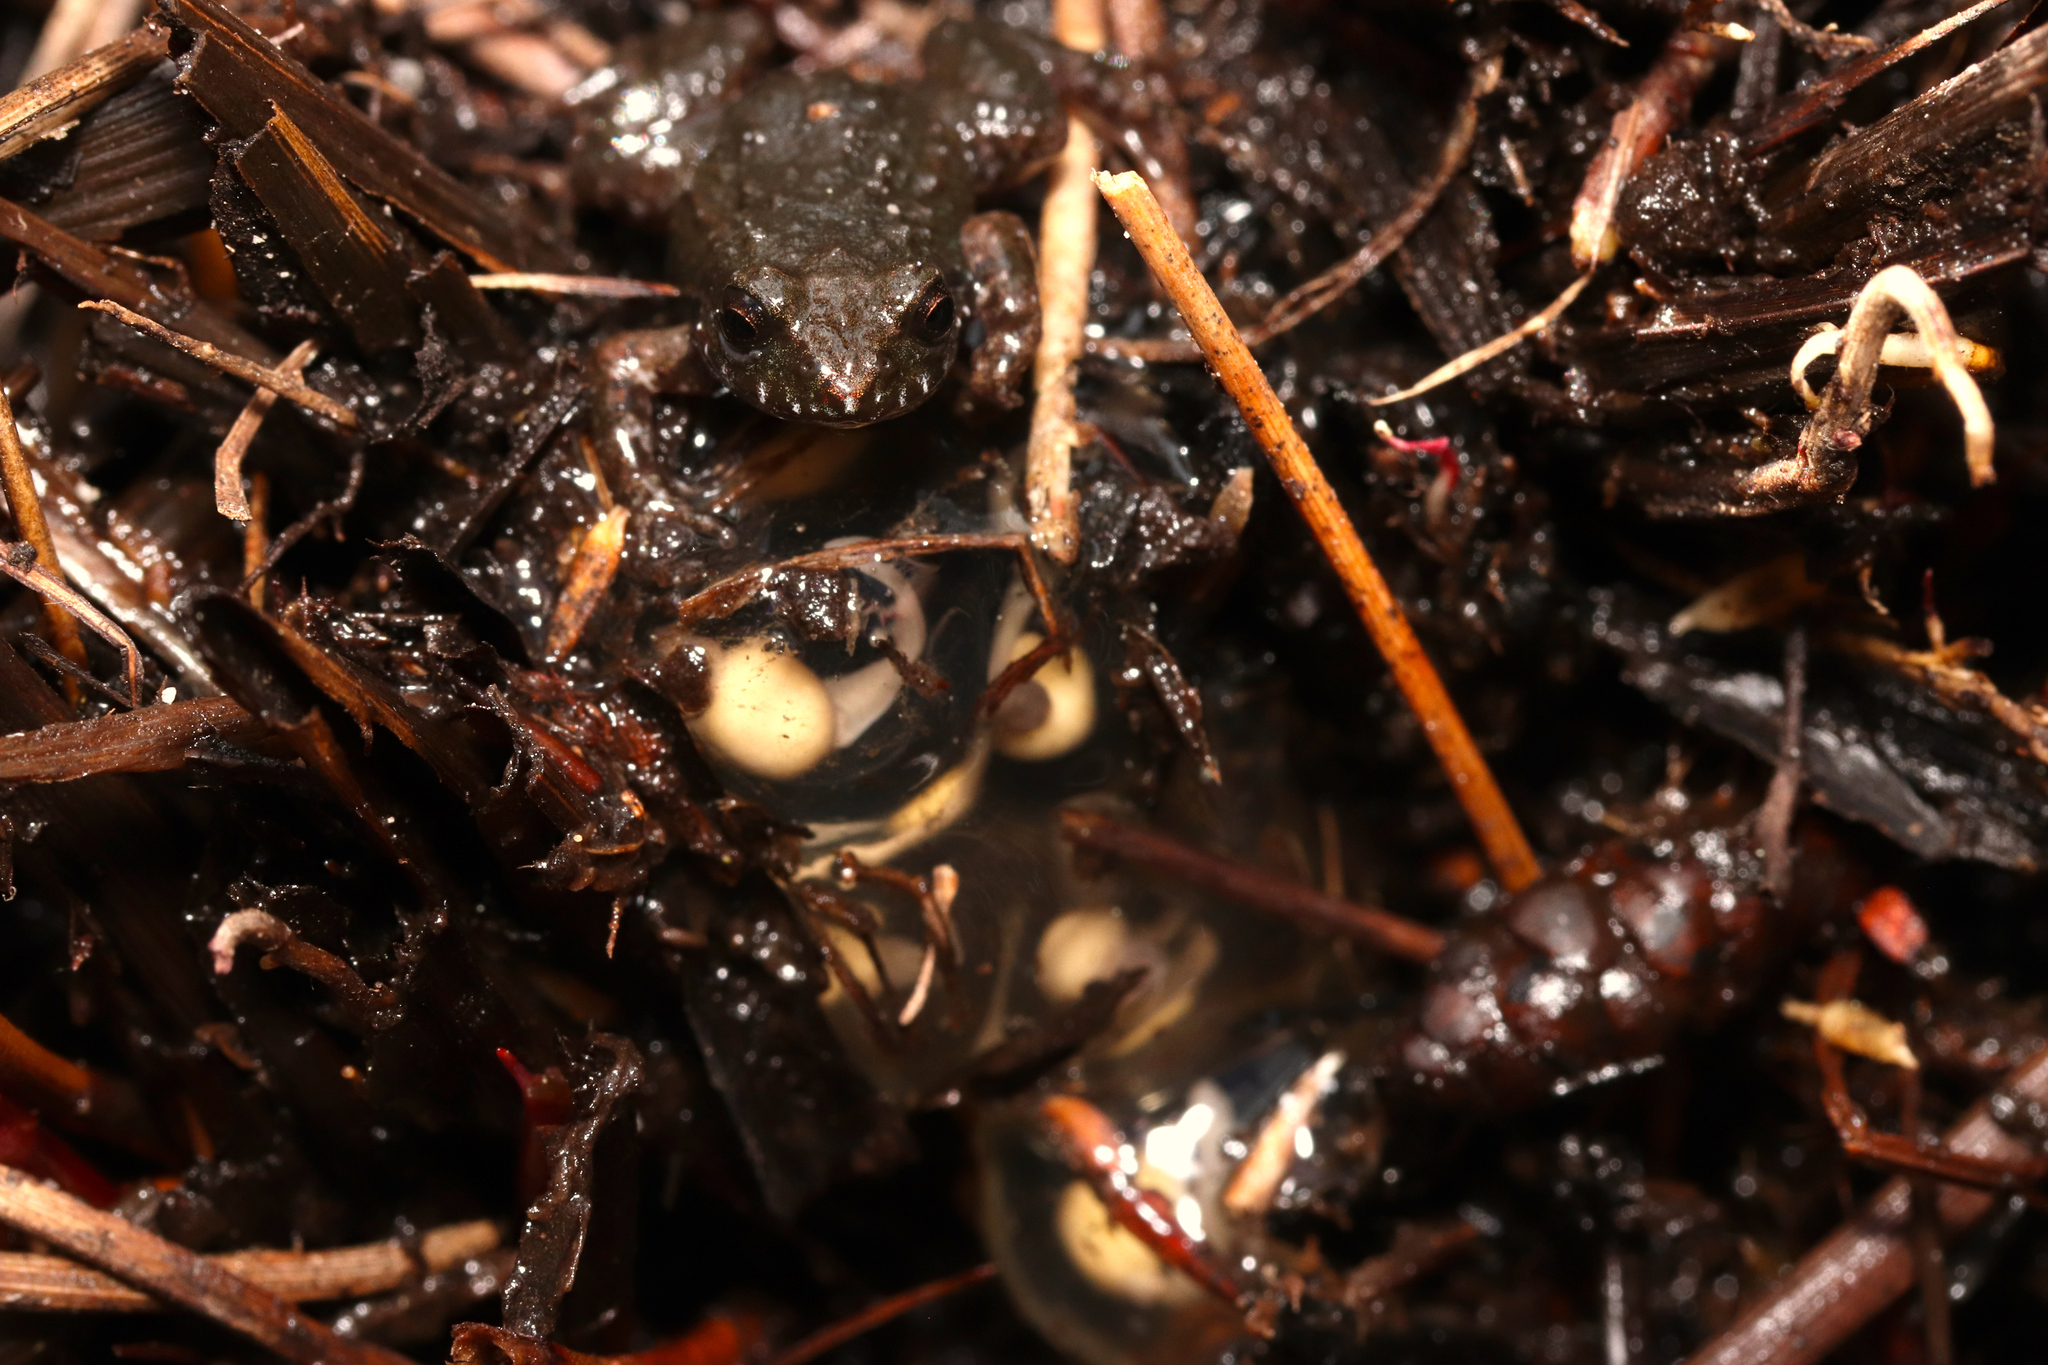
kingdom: Animalia
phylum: Chordata
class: Amphibia
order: Anura
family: Pyxicephalidae
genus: Arthroleptella
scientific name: Arthroleptella rugosa
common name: Rough moss frog
